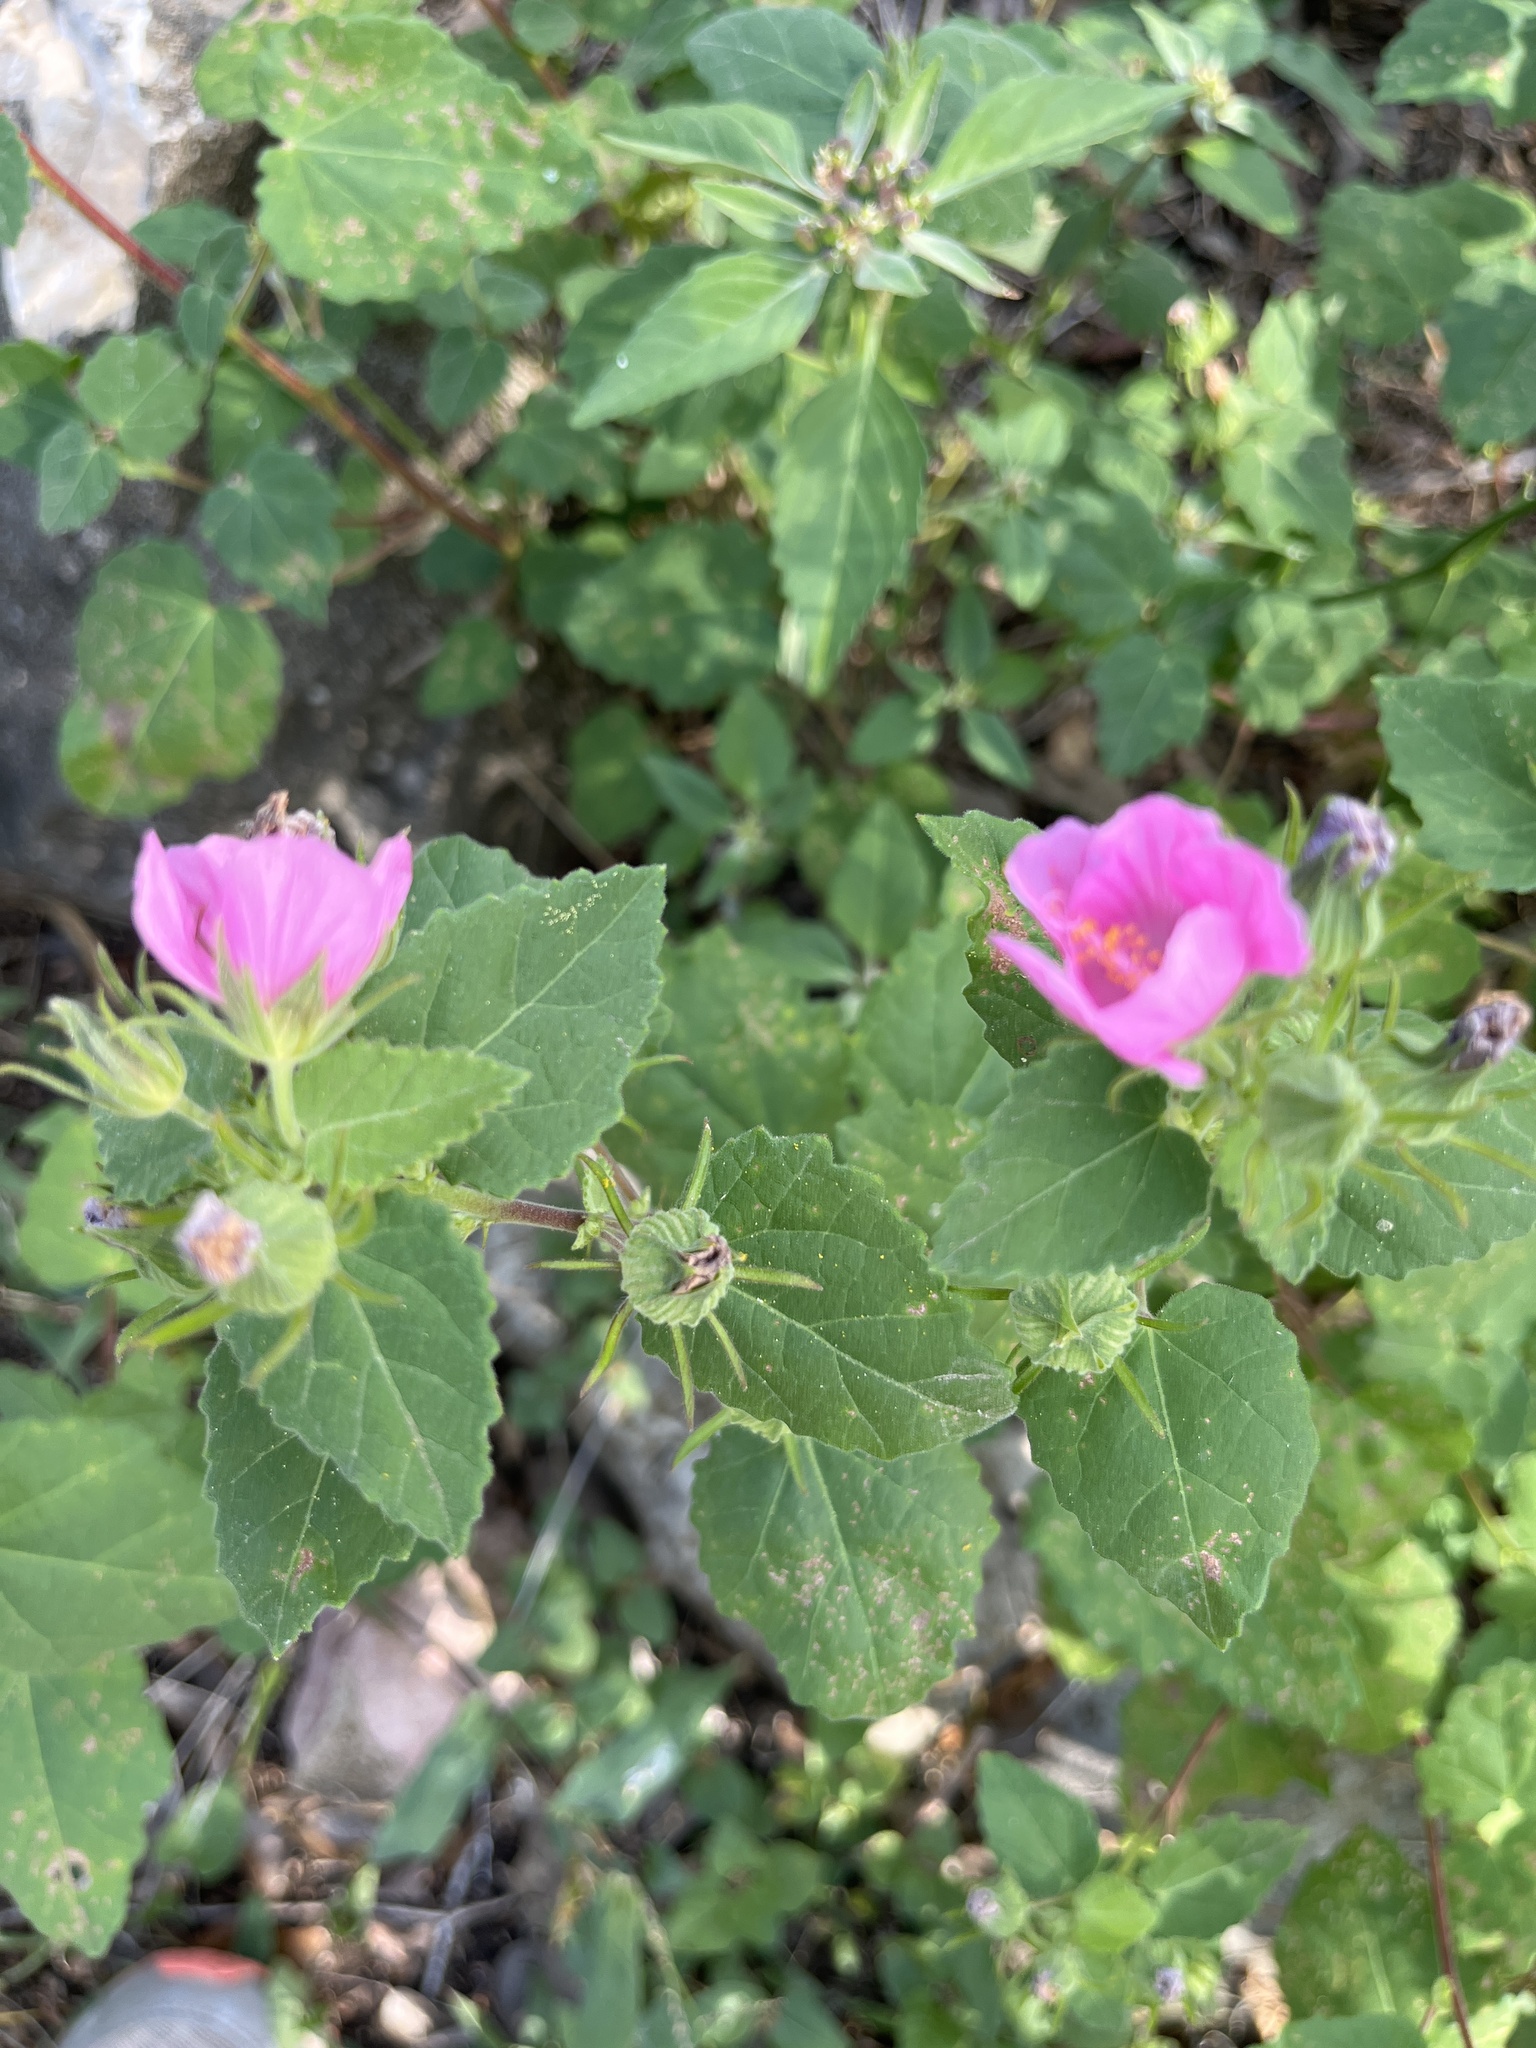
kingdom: Plantae
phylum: Tracheophyta
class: Magnoliopsida
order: Malvales
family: Malvaceae
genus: Pavonia
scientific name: Pavonia lasiopetala
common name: Texas swamp-mallow
